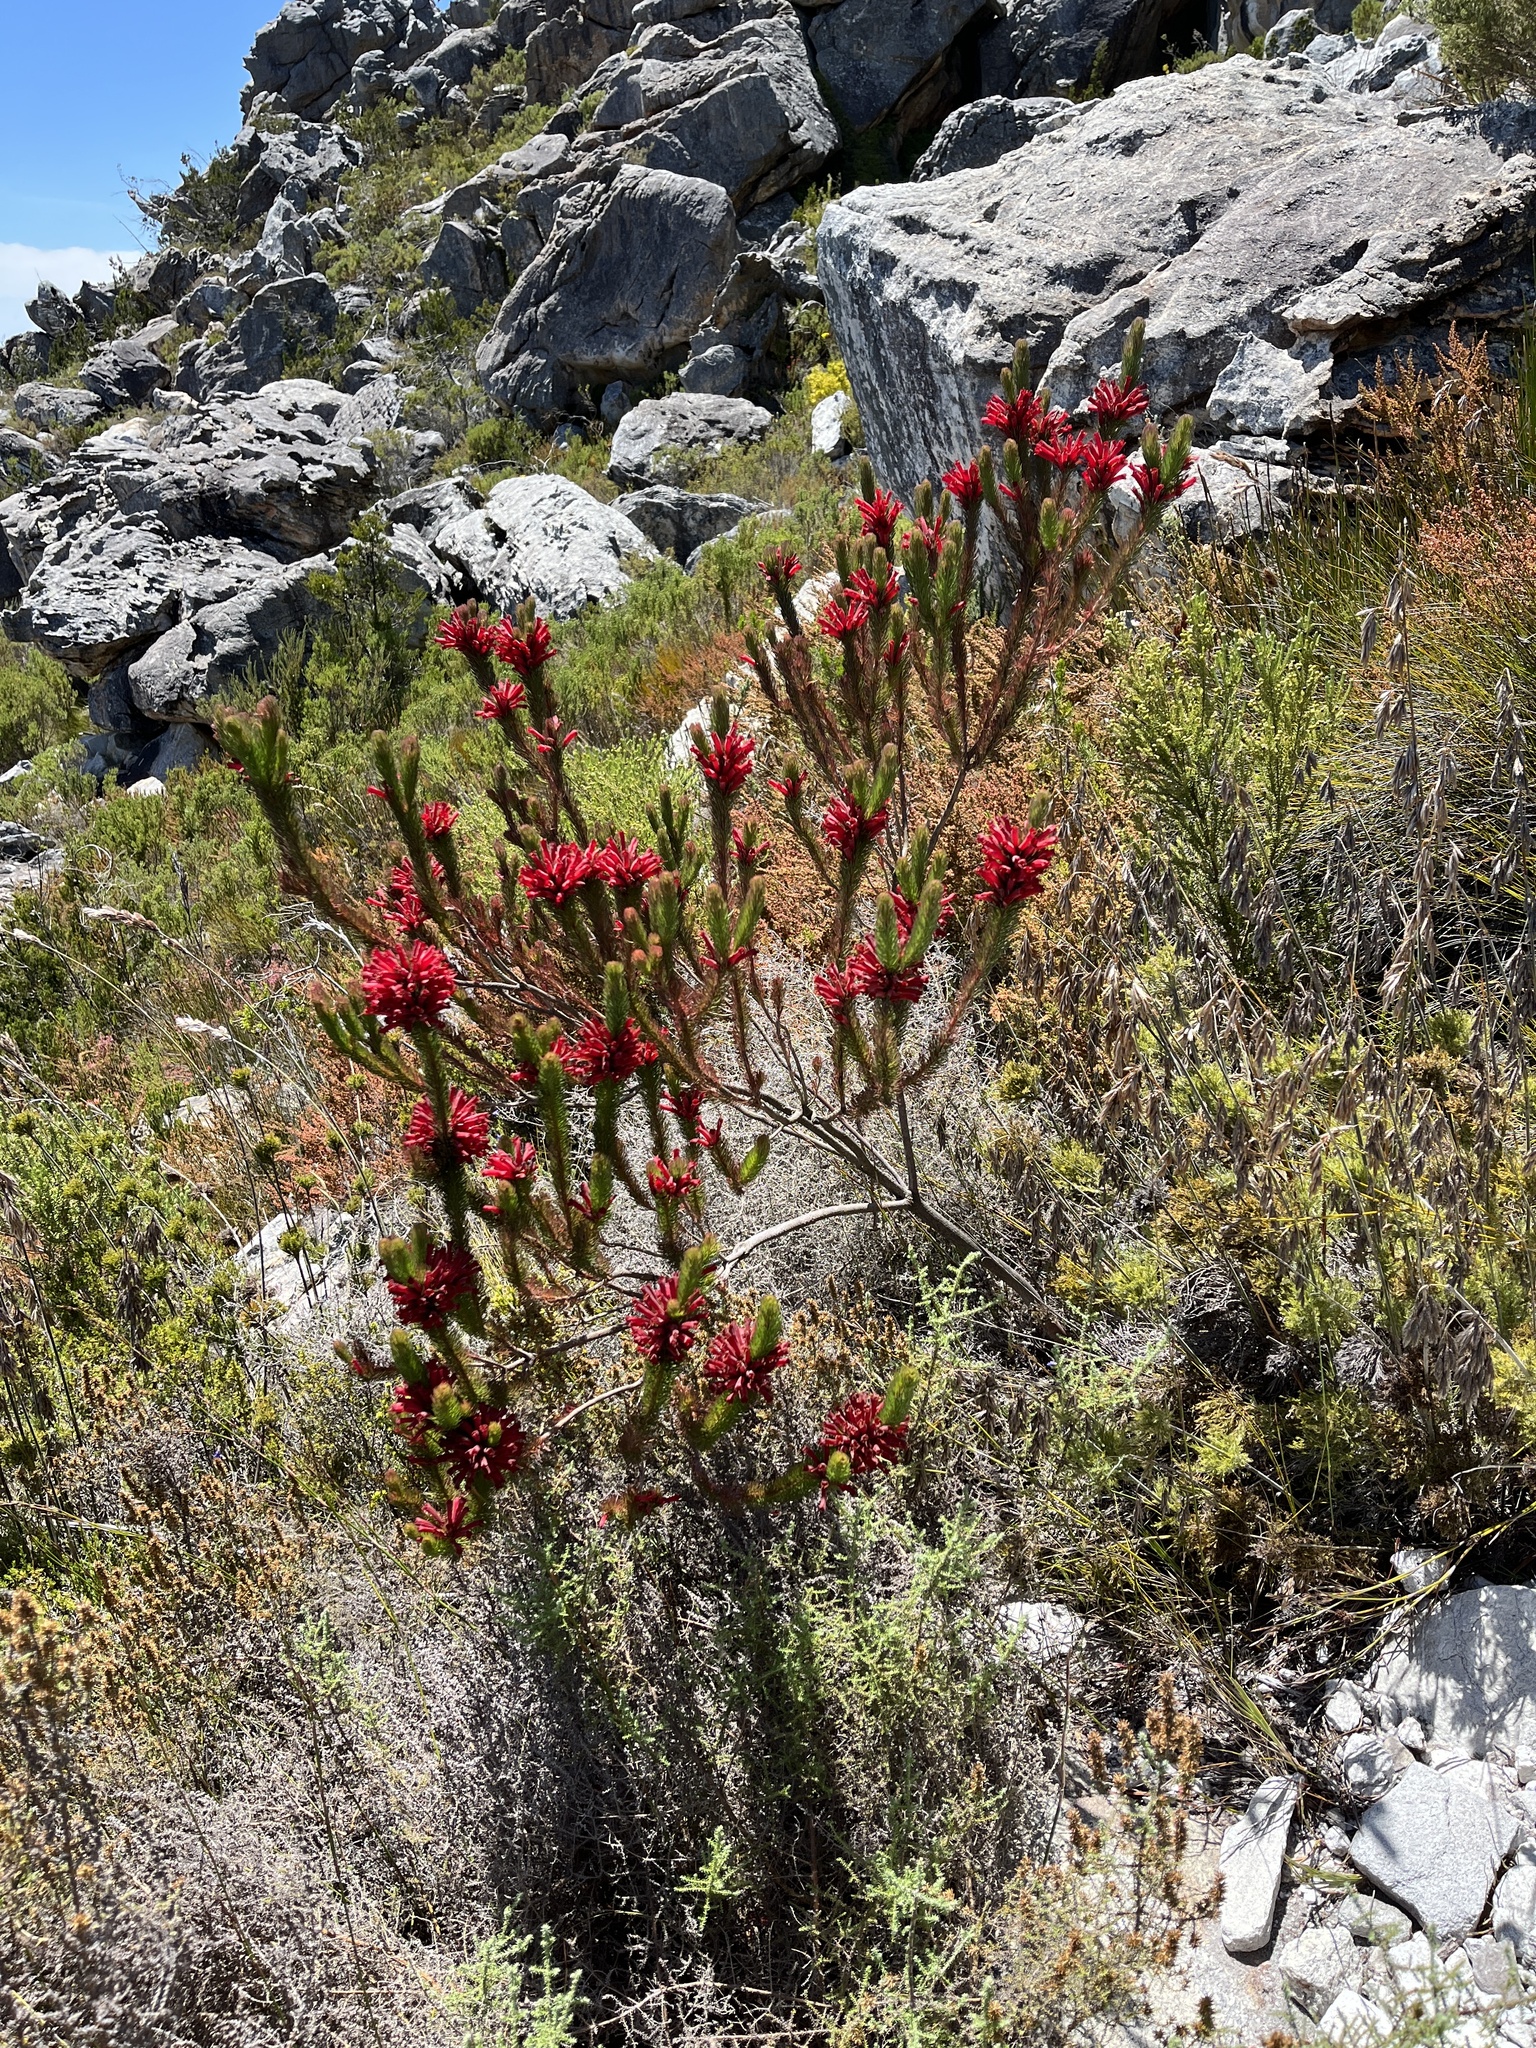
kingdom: Plantae
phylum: Tracheophyta
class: Magnoliopsida
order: Ericales
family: Ericaceae
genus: Erica
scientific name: Erica vestita
